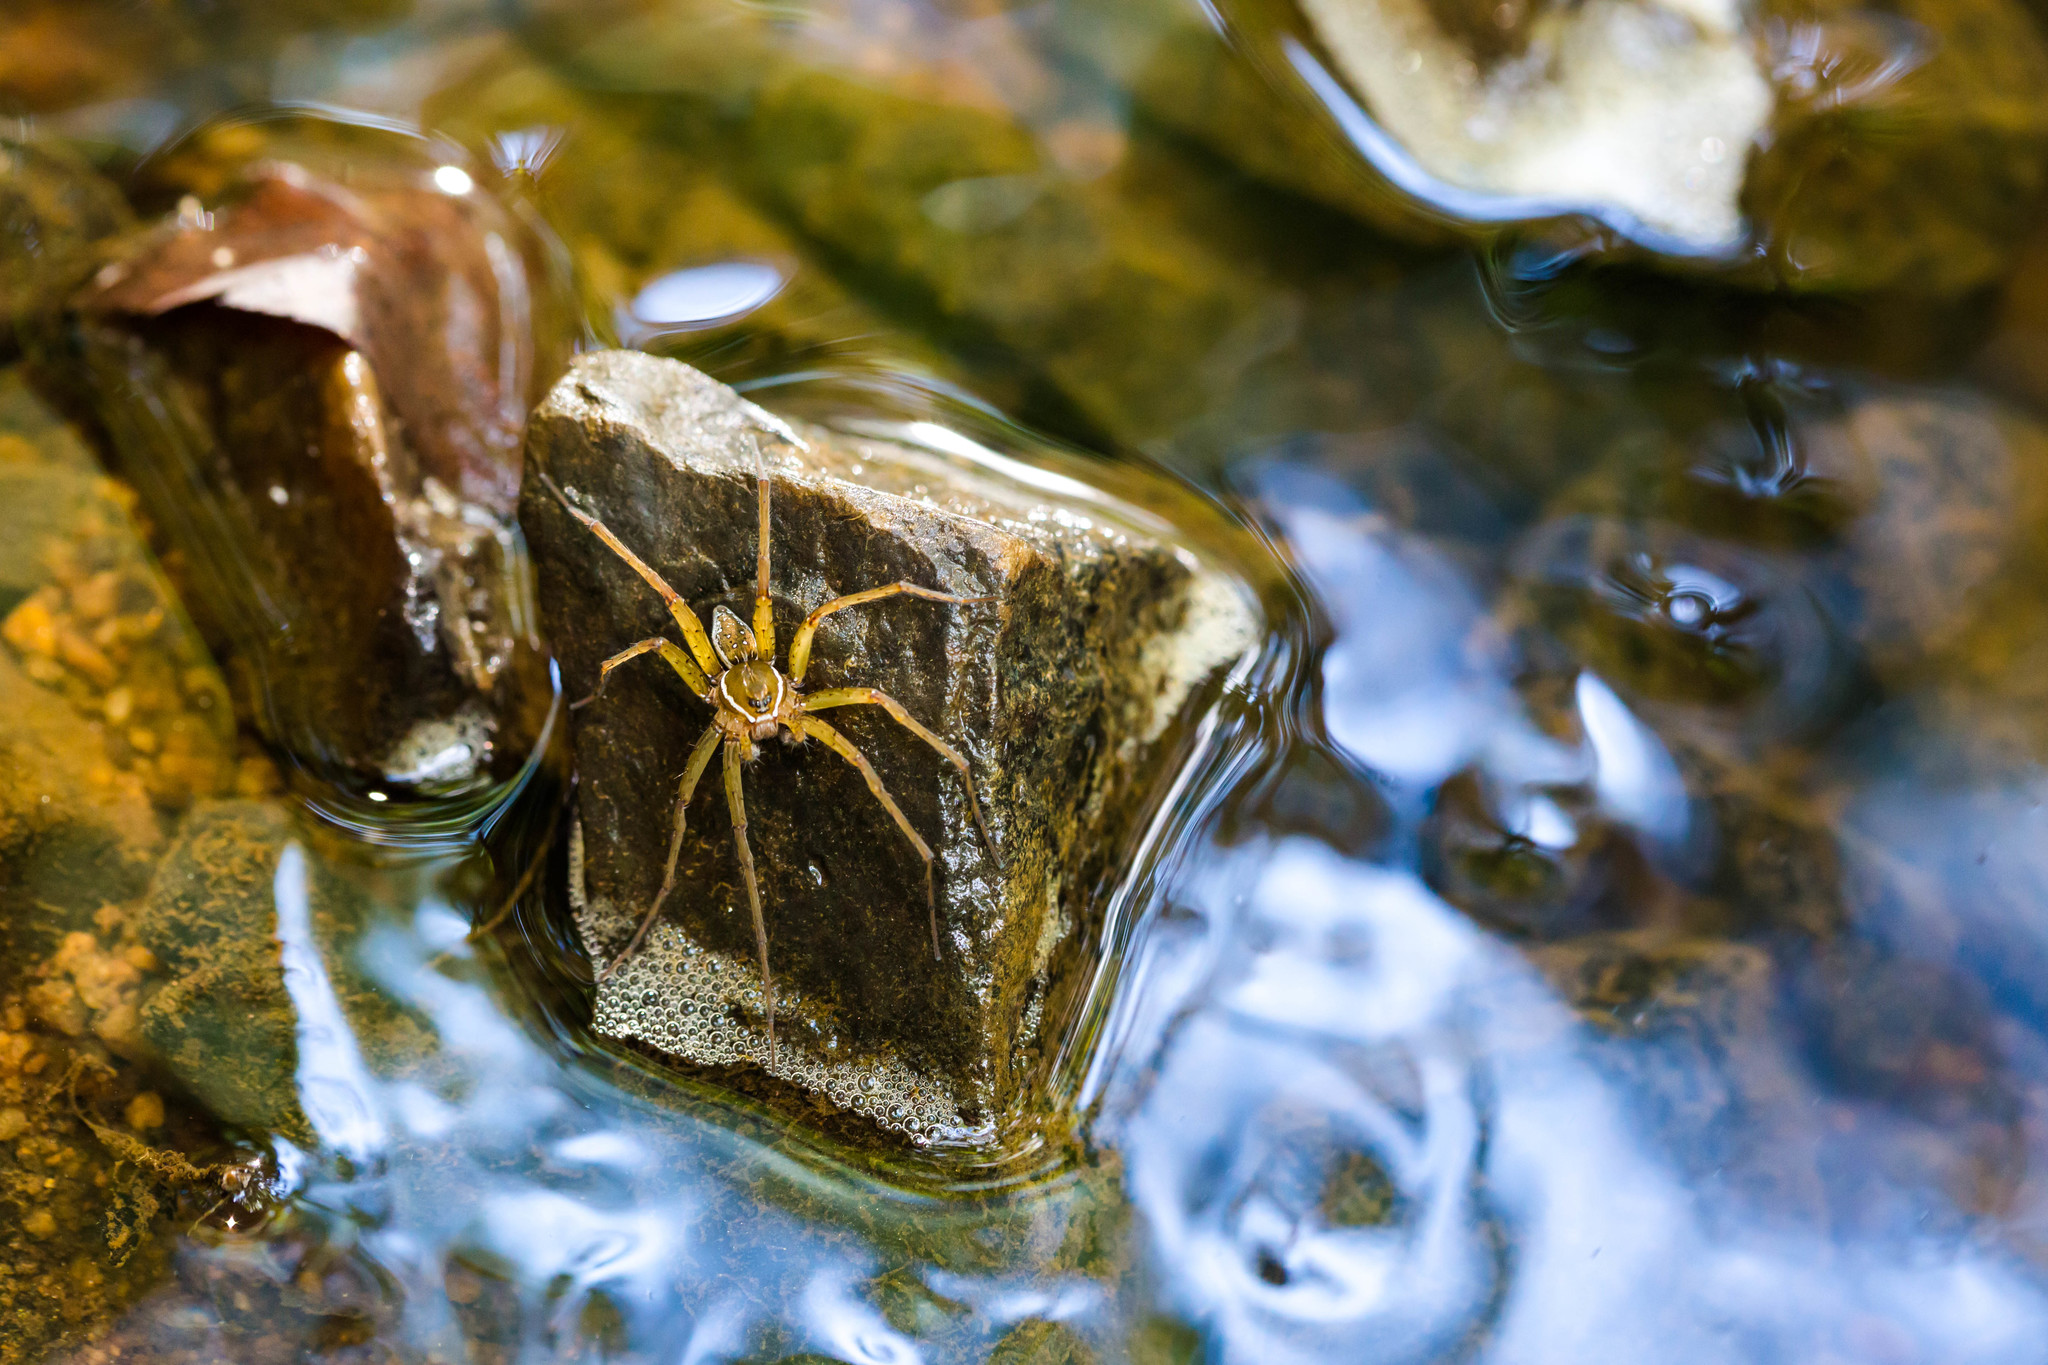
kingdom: Animalia
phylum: Arthropoda
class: Arachnida
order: Araneae
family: Pisauridae
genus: Dolomedes
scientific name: Dolomedes triton
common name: Six-spotted fishing spider
